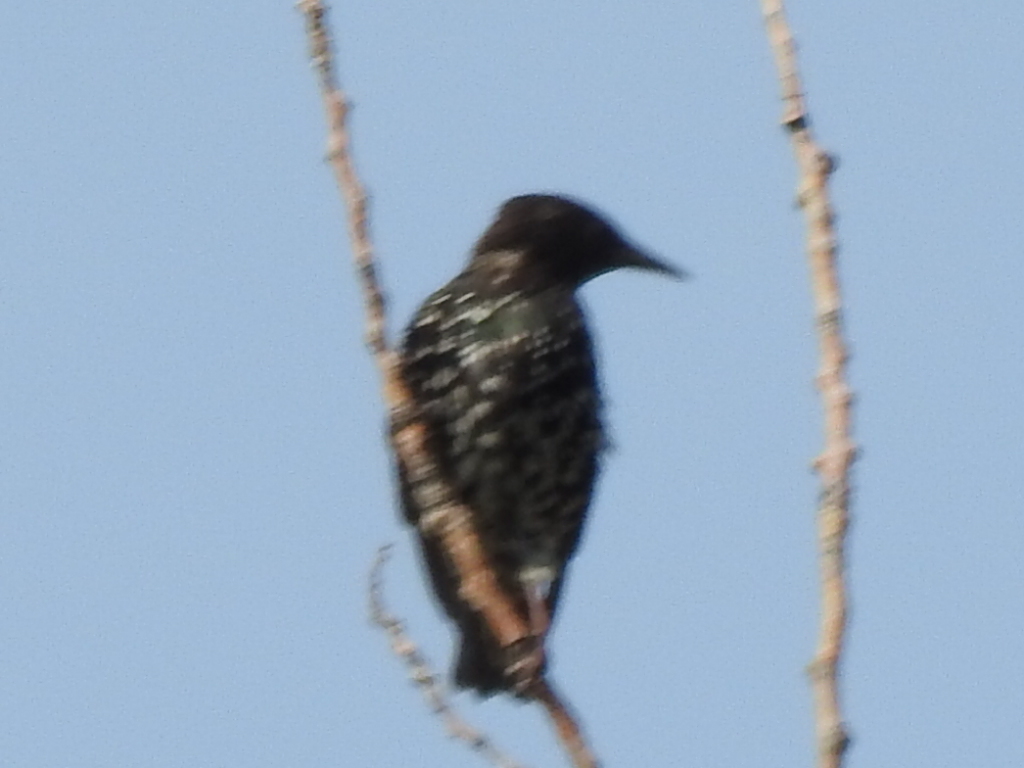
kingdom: Animalia
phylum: Chordata
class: Aves
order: Passeriformes
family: Sturnidae
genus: Sturnus
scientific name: Sturnus vulgaris
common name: Common starling
